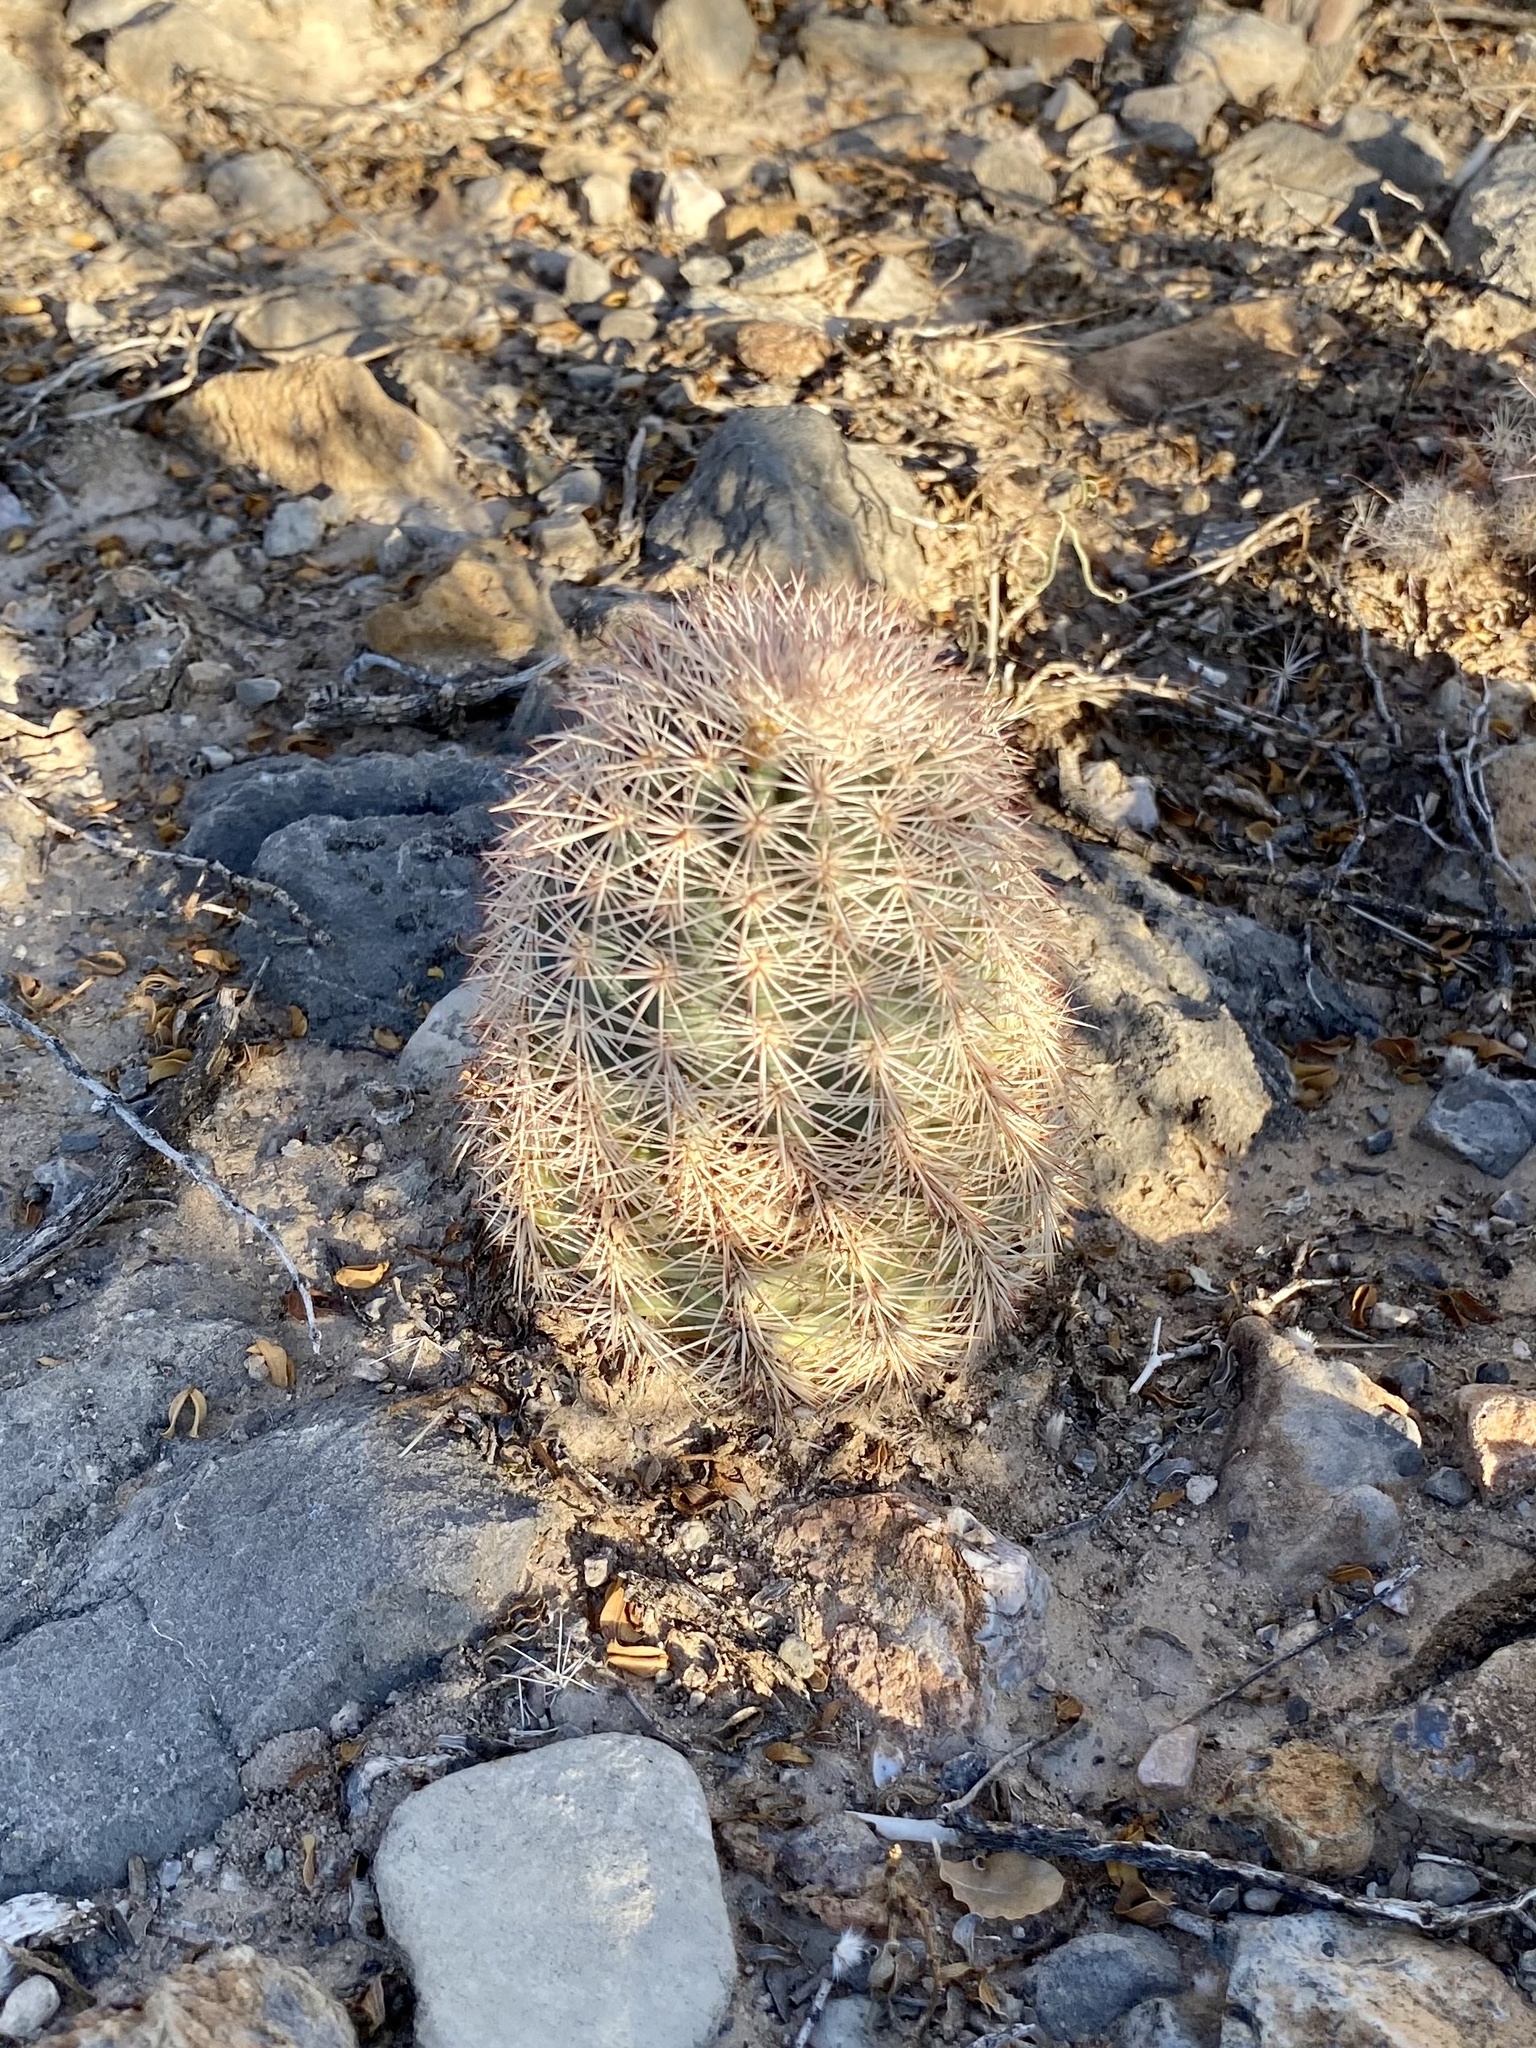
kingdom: Plantae
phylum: Tracheophyta
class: Magnoliopsida
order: Caryophyllales
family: Cactaceae
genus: Echinocereus
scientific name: Echinocereus dasyacanthus
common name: Spiny hedgehog cactus
